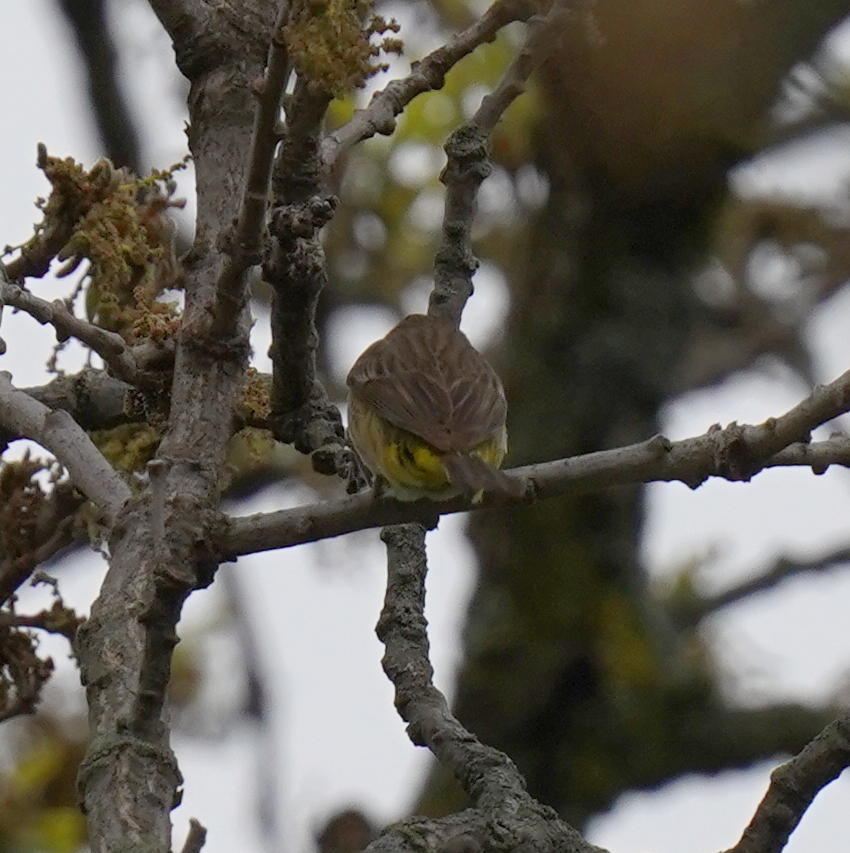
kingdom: Animalia
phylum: Chordata
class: Aves
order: Passeriformes
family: Parulidae
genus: Setophaga
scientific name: Setophaga palmarum
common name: Palm warbler
